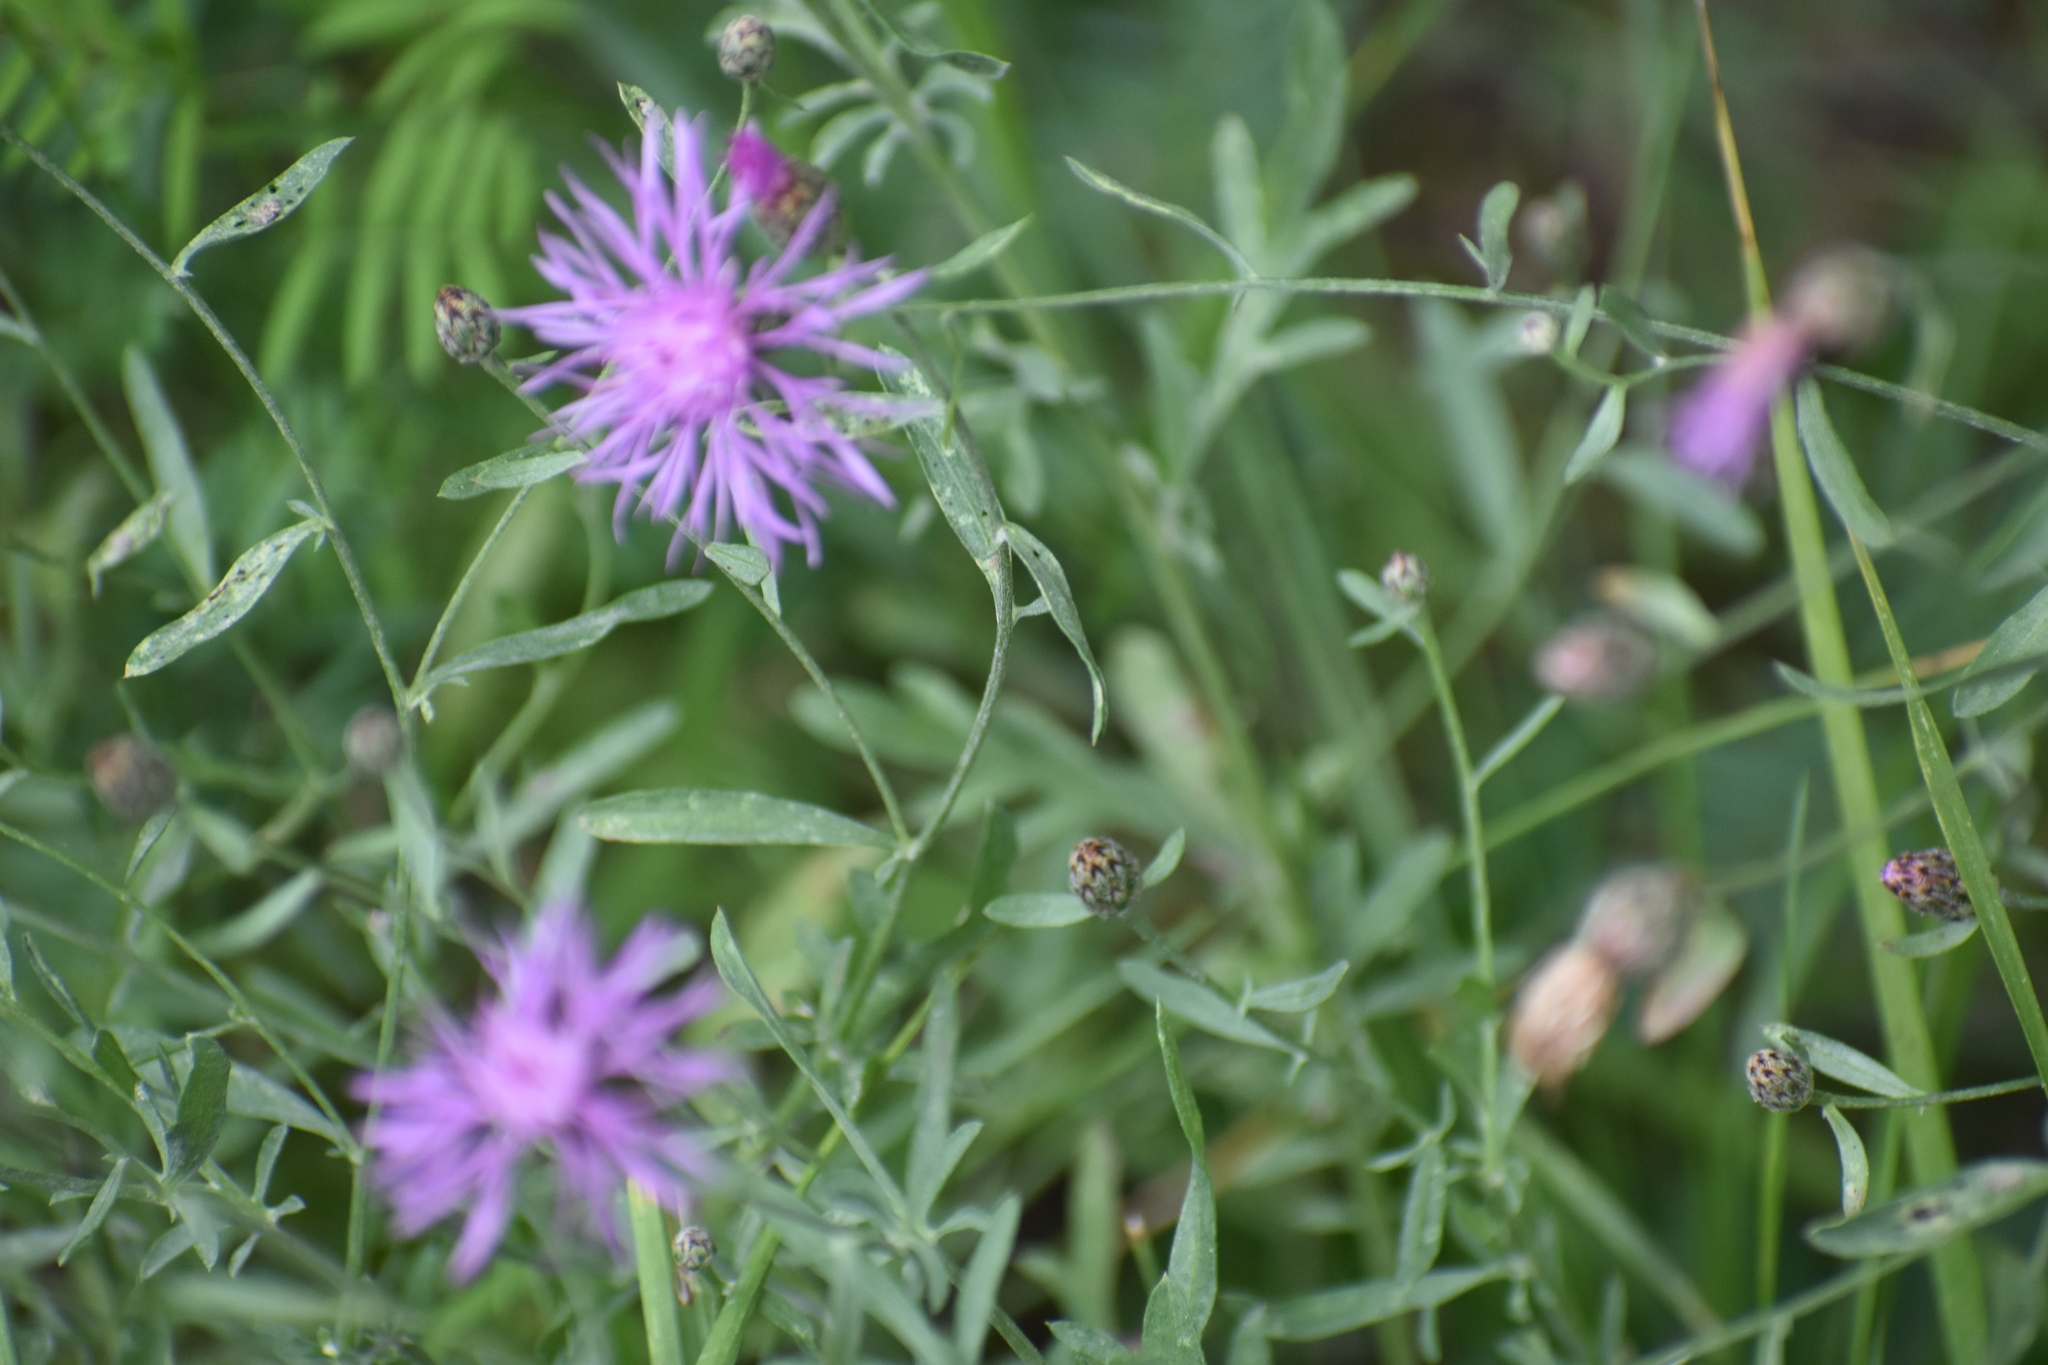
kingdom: Plantae
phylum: Tracheophyta
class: Magnoliopsida
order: Asterales
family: Asteraceae
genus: Centaurea
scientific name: Centaurea stoebe
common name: Spotted knapweed
